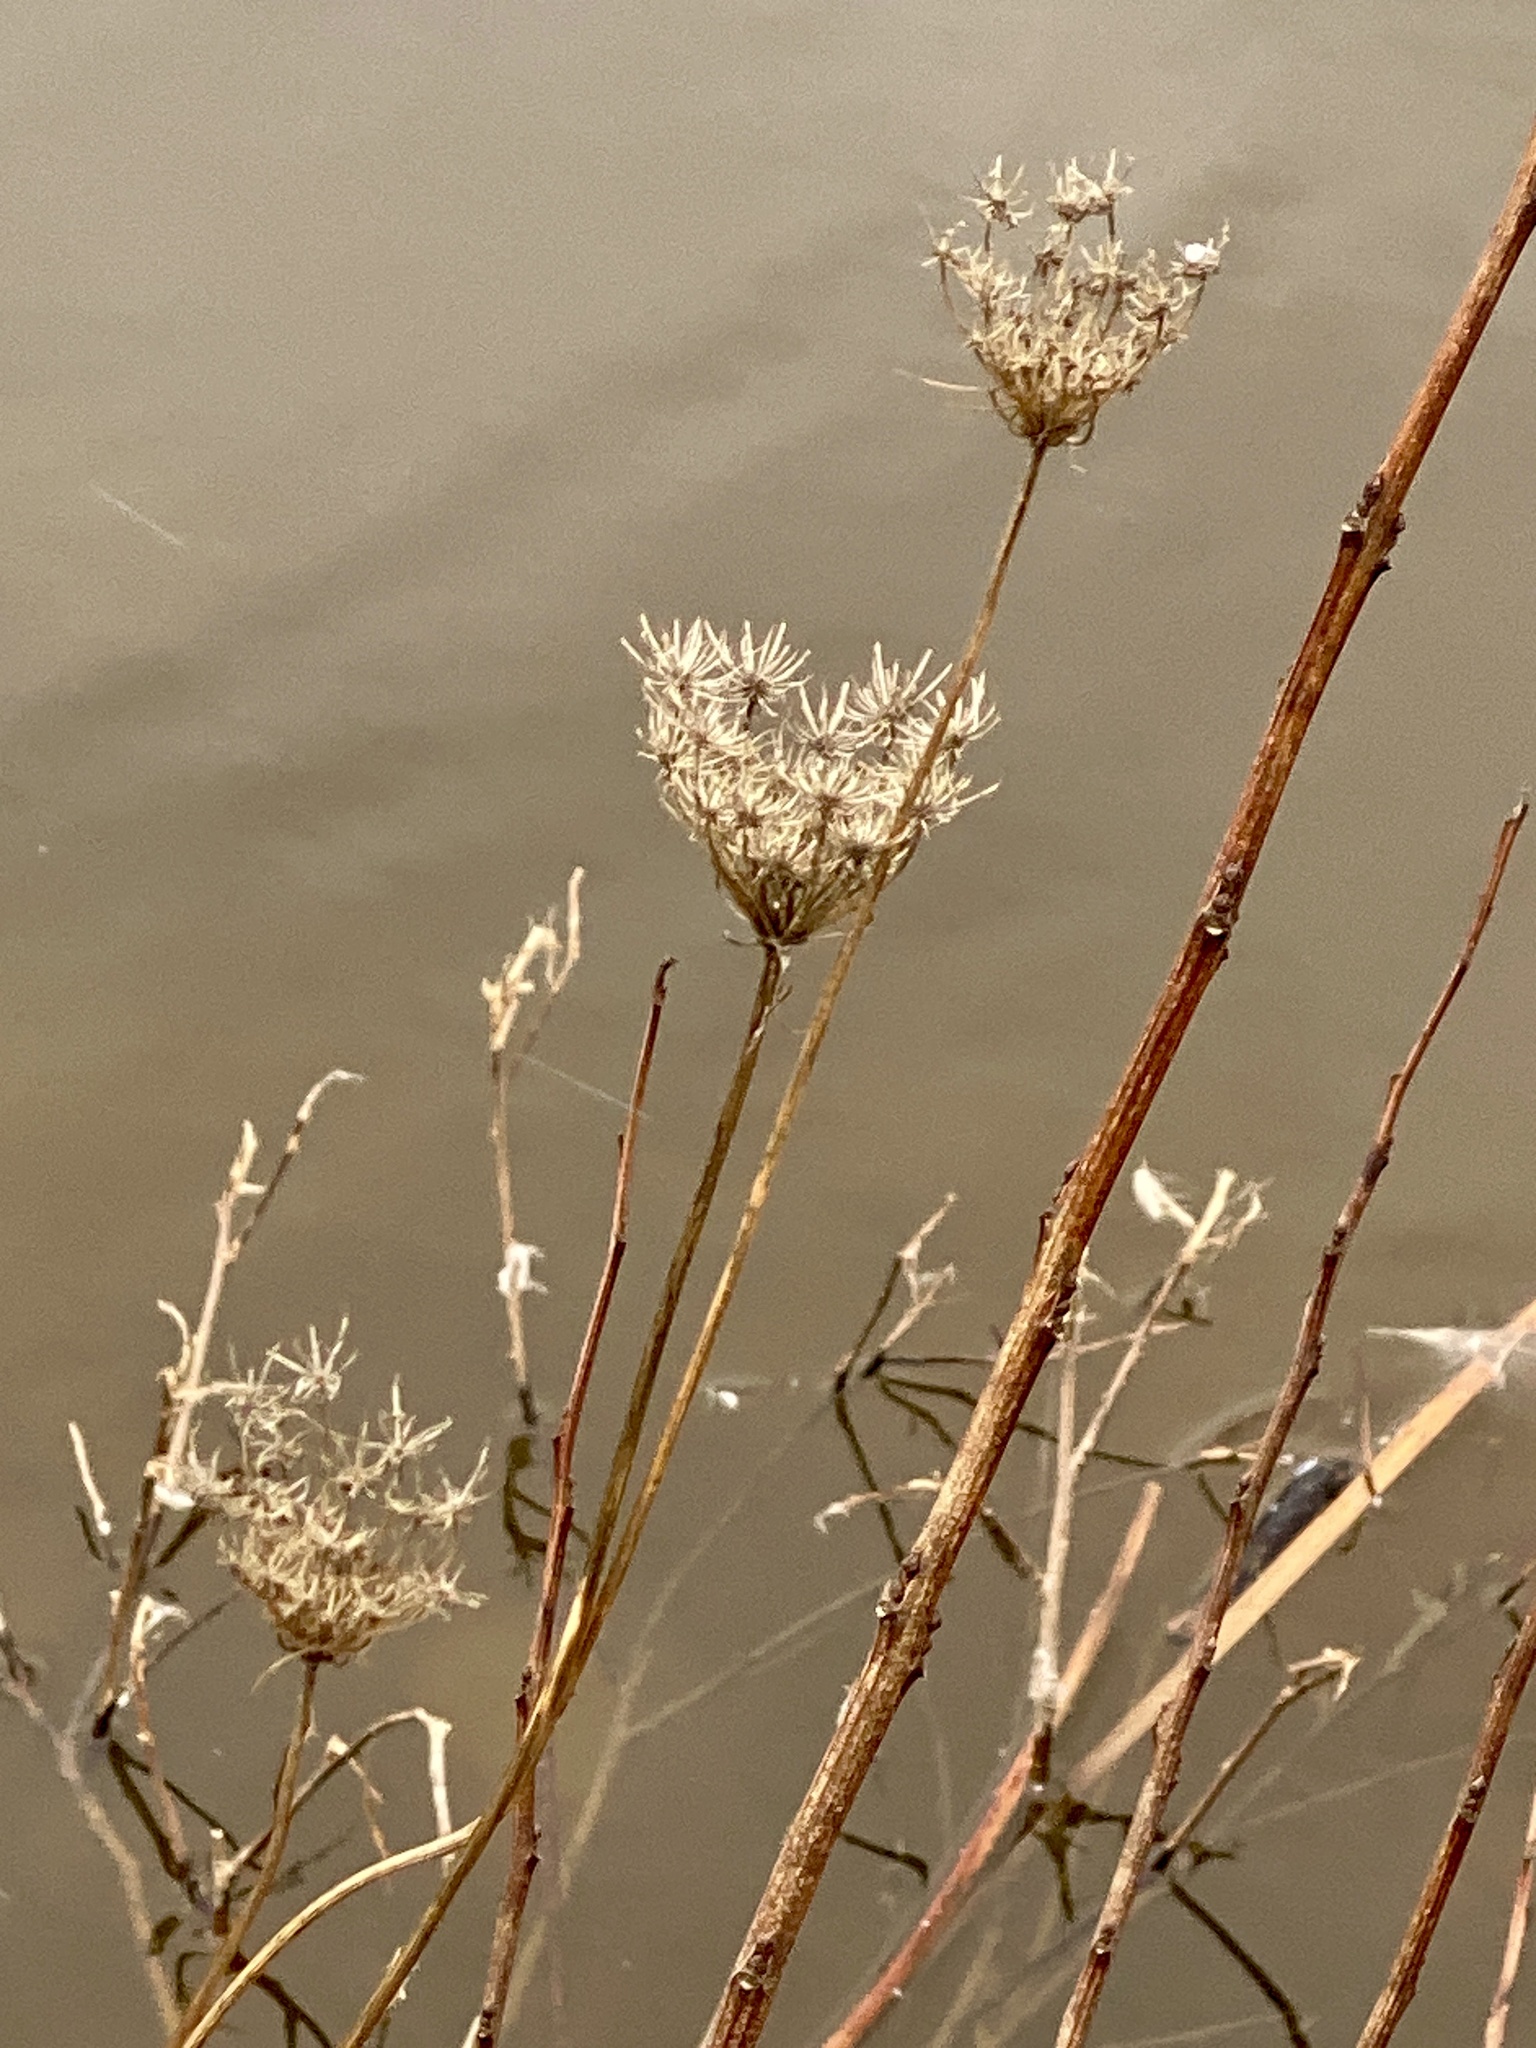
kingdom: Plantae
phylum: Tracheophyta
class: Magnoliopsida
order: Apiales
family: Apiaceae
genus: Daucus
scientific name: Daucus carota
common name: Wild carrot
